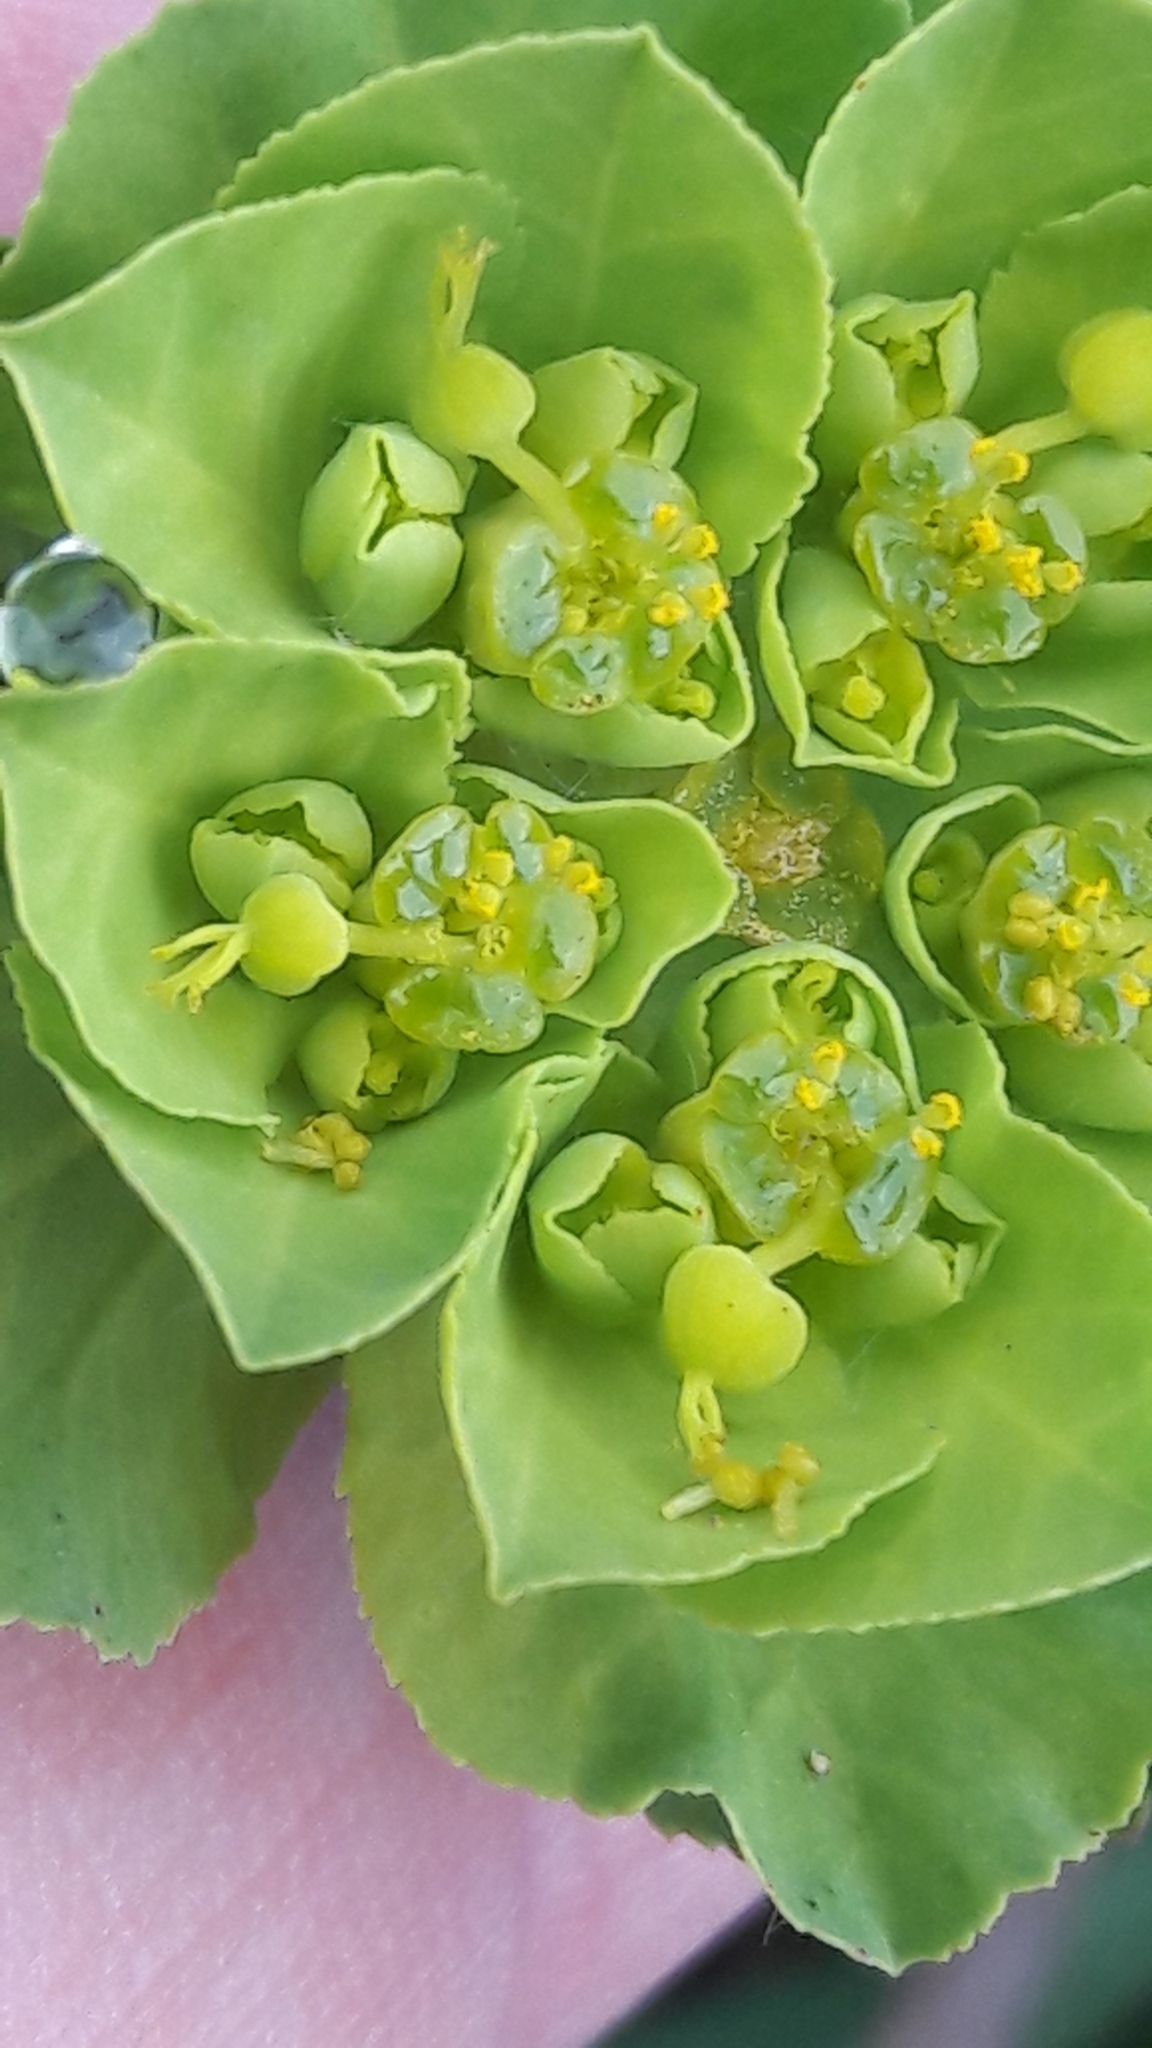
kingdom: Plantae
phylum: Tracheophyta
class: Magnoliopsida
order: Malpighiales
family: Euphorbiaceae
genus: Euphorbia
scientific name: Euphorbia helioscopia
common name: Sun spurge
